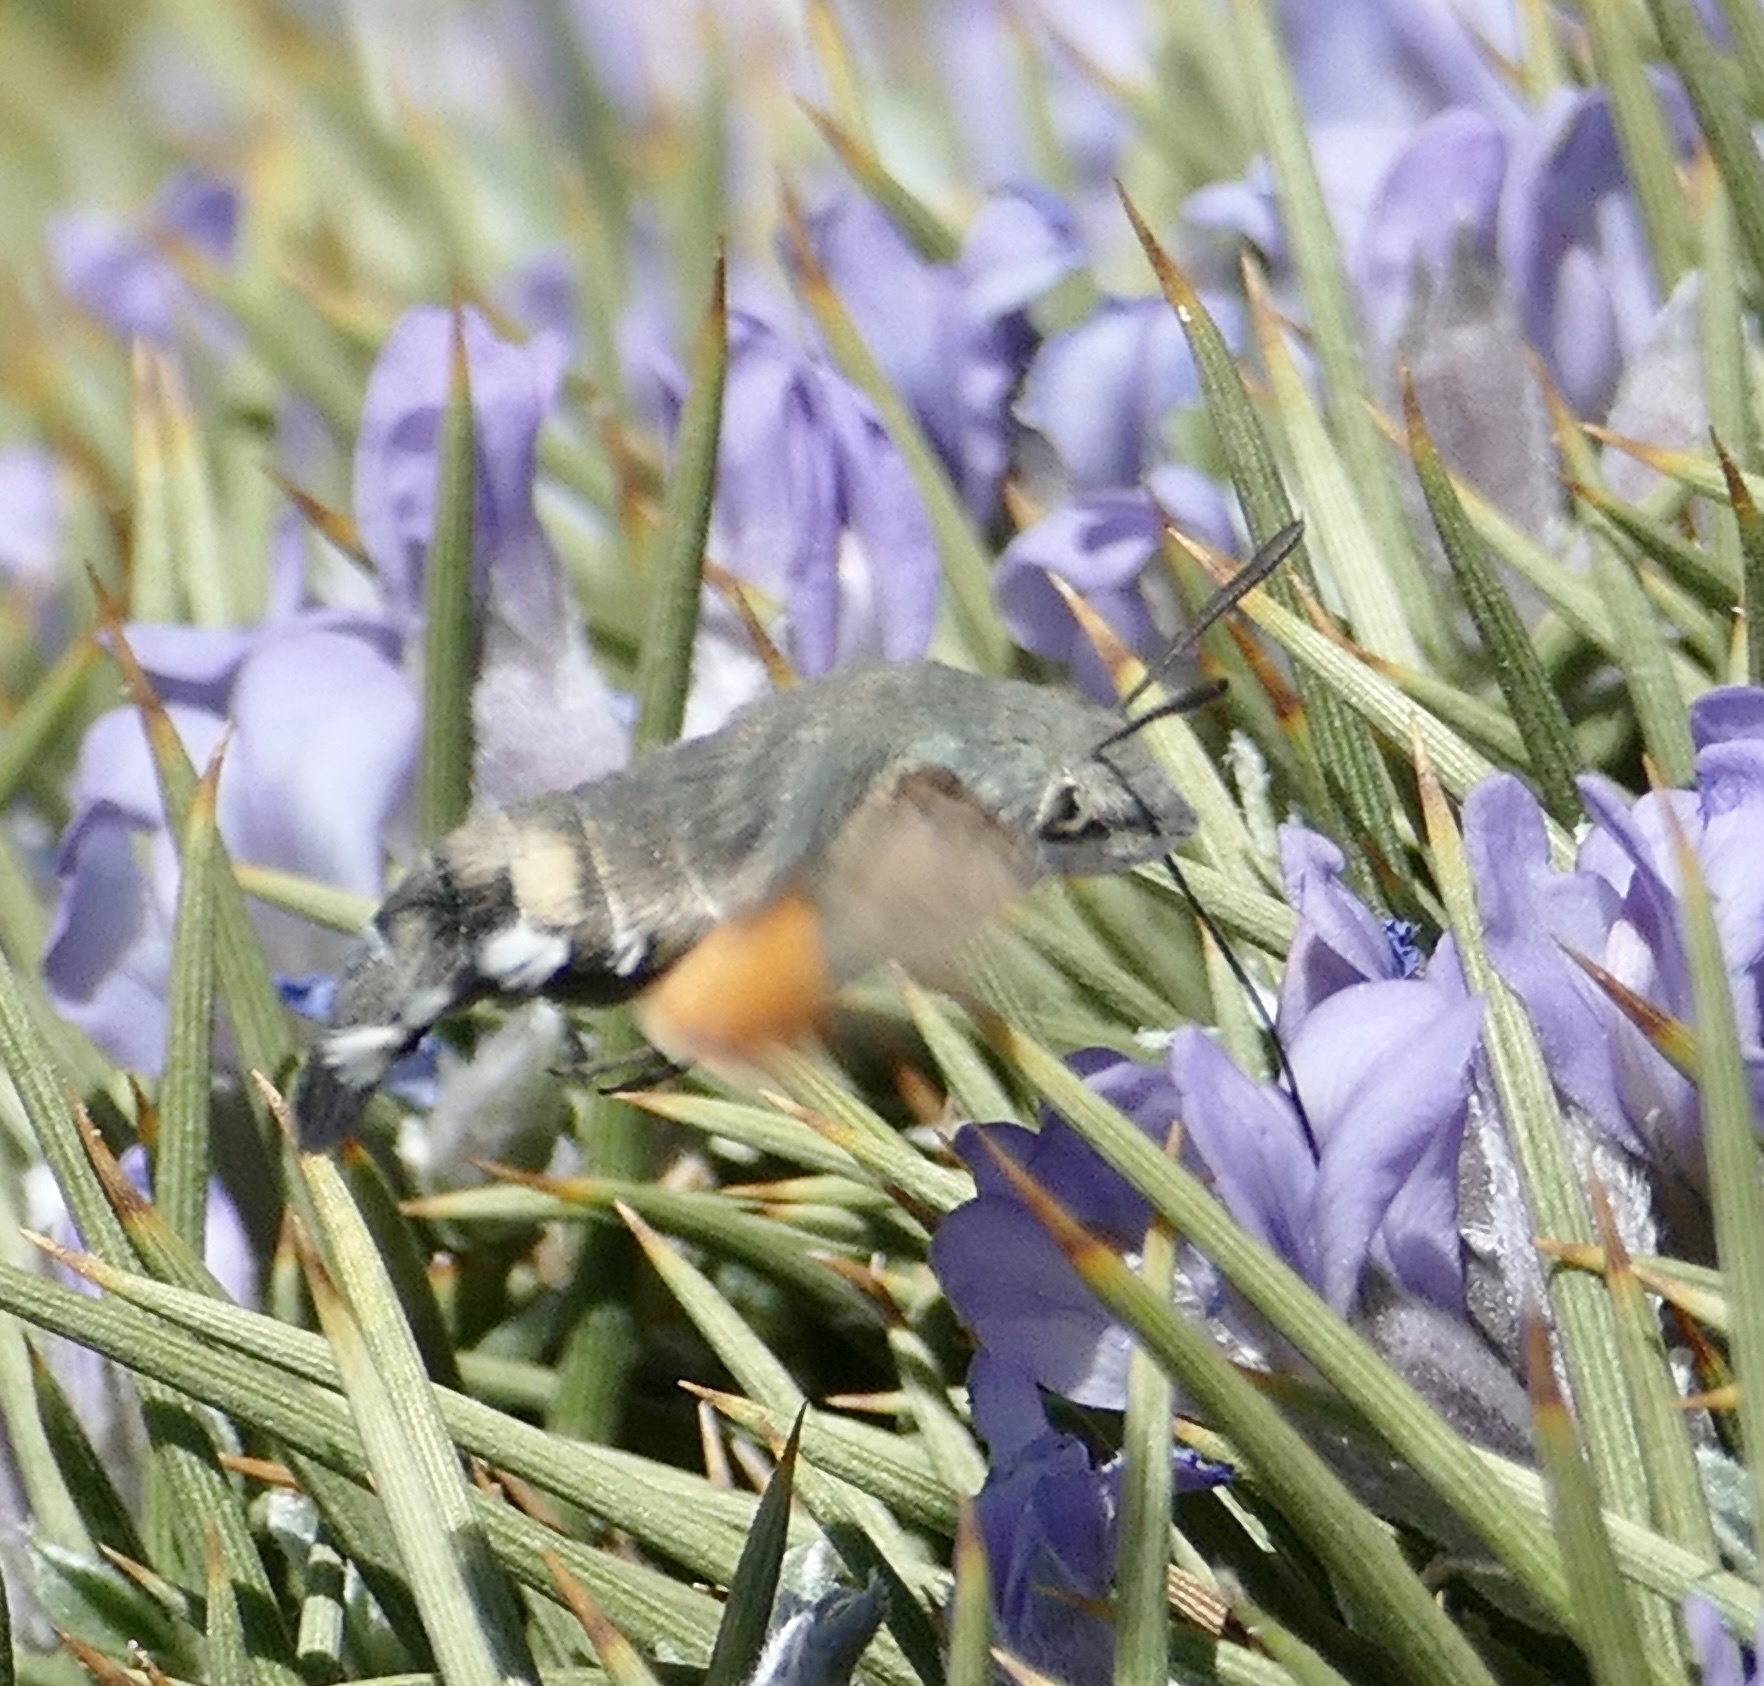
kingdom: Animalia
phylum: Arthropoda
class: Insecta
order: Lepidoptera
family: Sphingidae
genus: Macroglossum
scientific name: Macroglossum stellatarum
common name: Humming-bird hawk-moth
